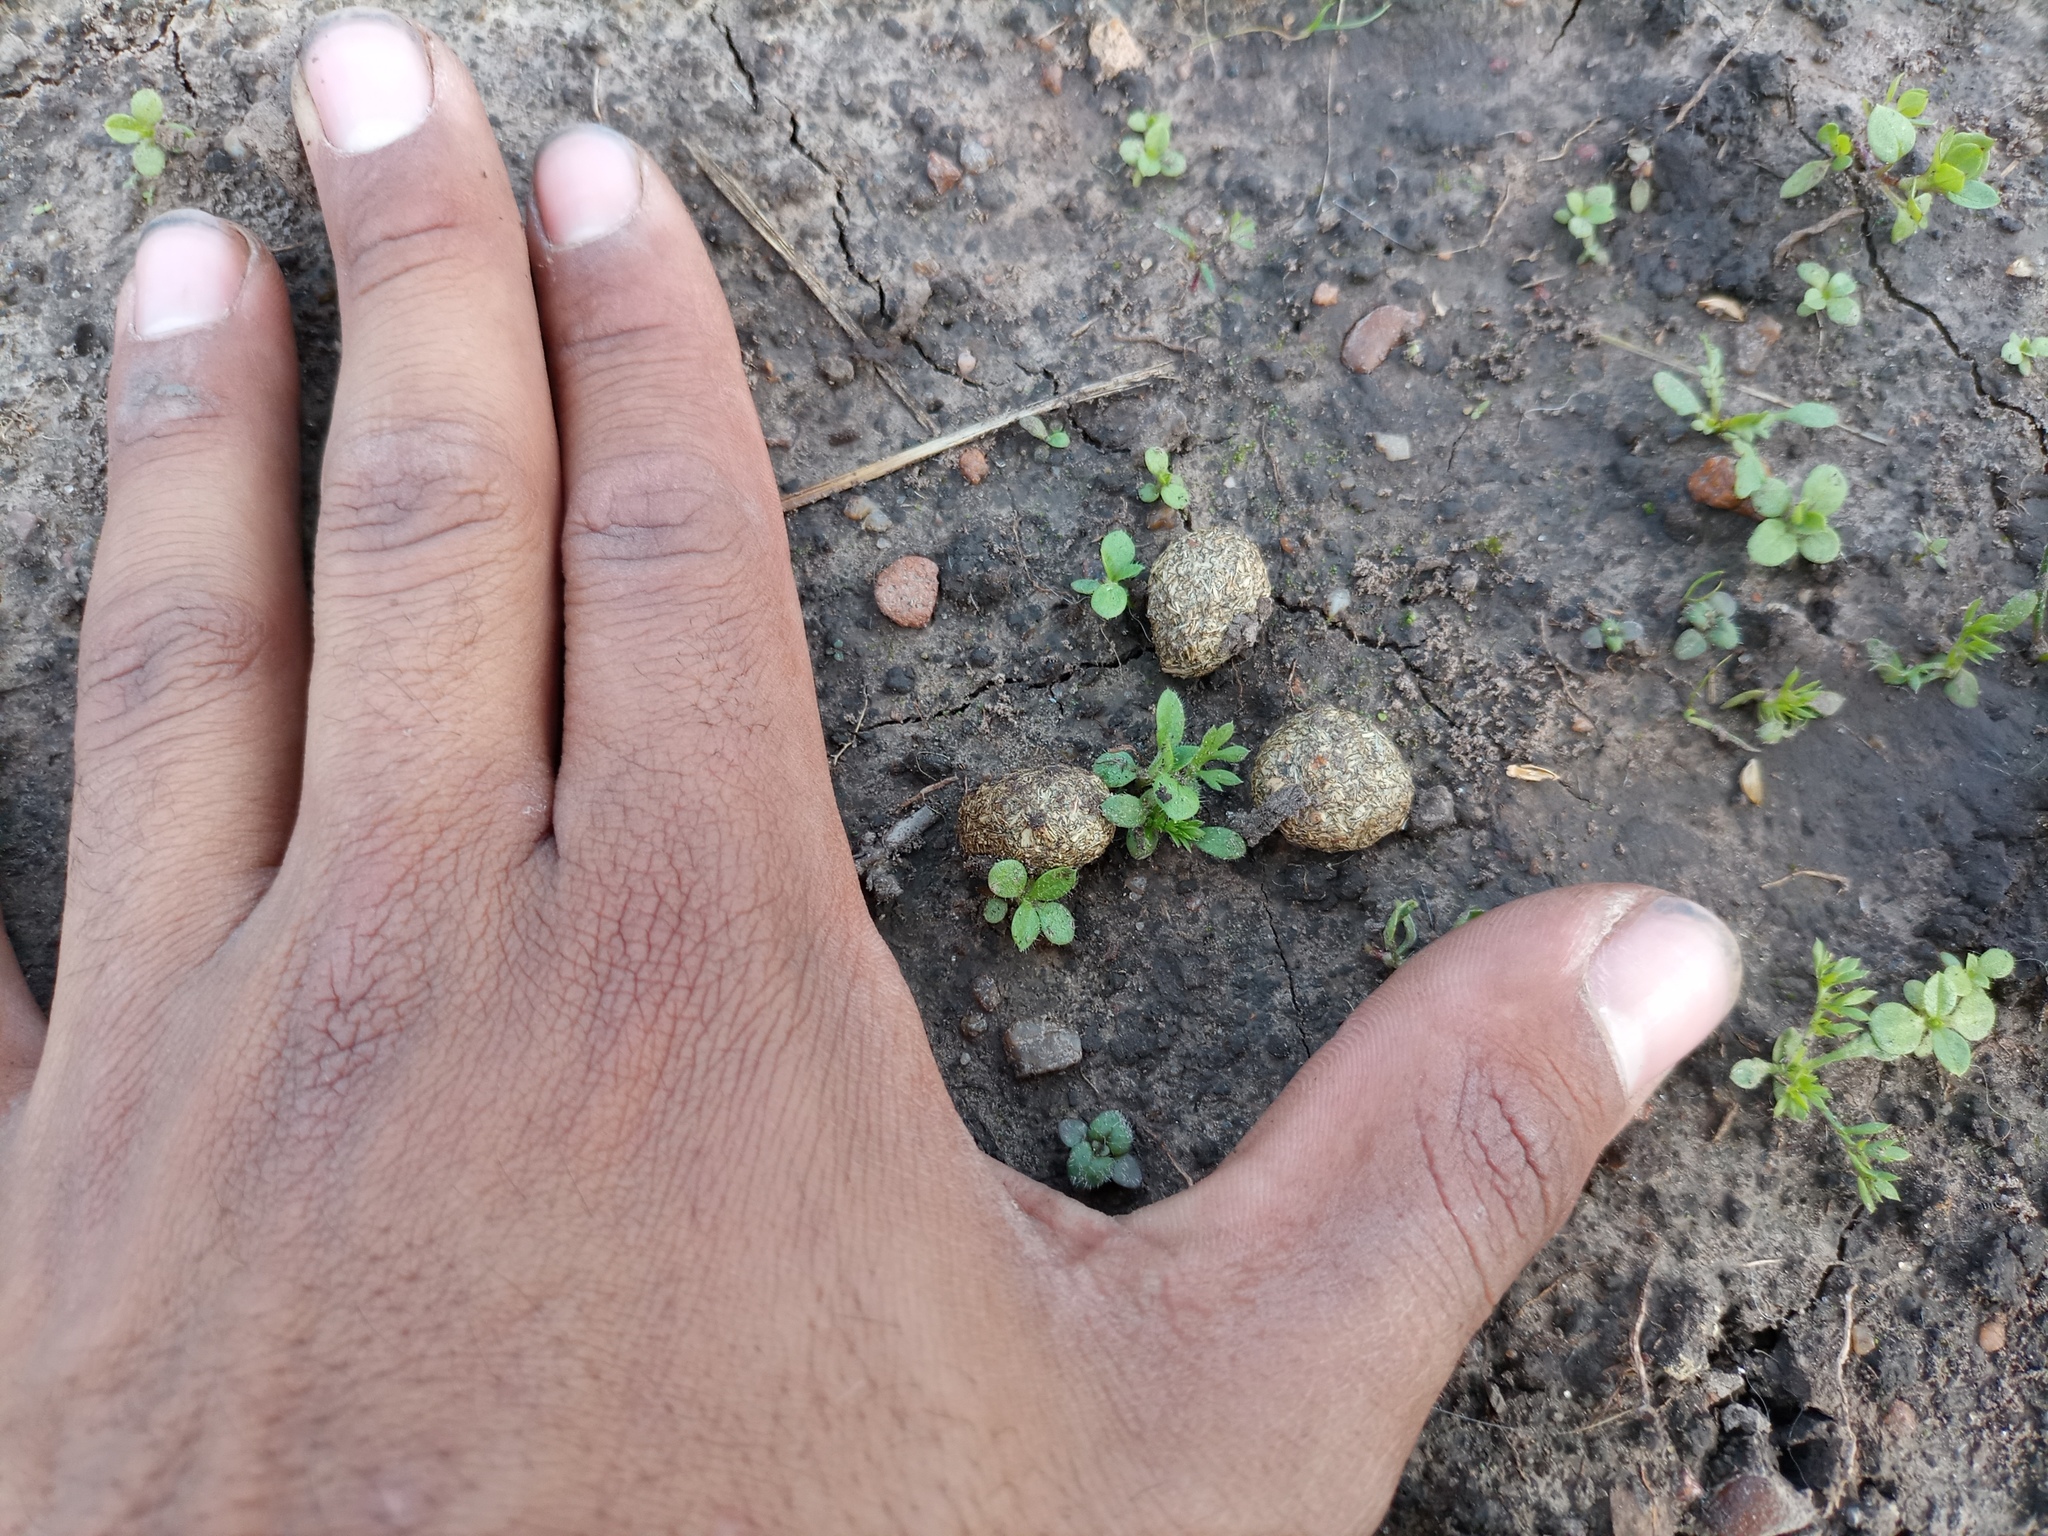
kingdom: Animalia
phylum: Chordata
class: Mammalia
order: Lagomorpha
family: Leporidae
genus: Lepus
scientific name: Lepus europaeus
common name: European hare
